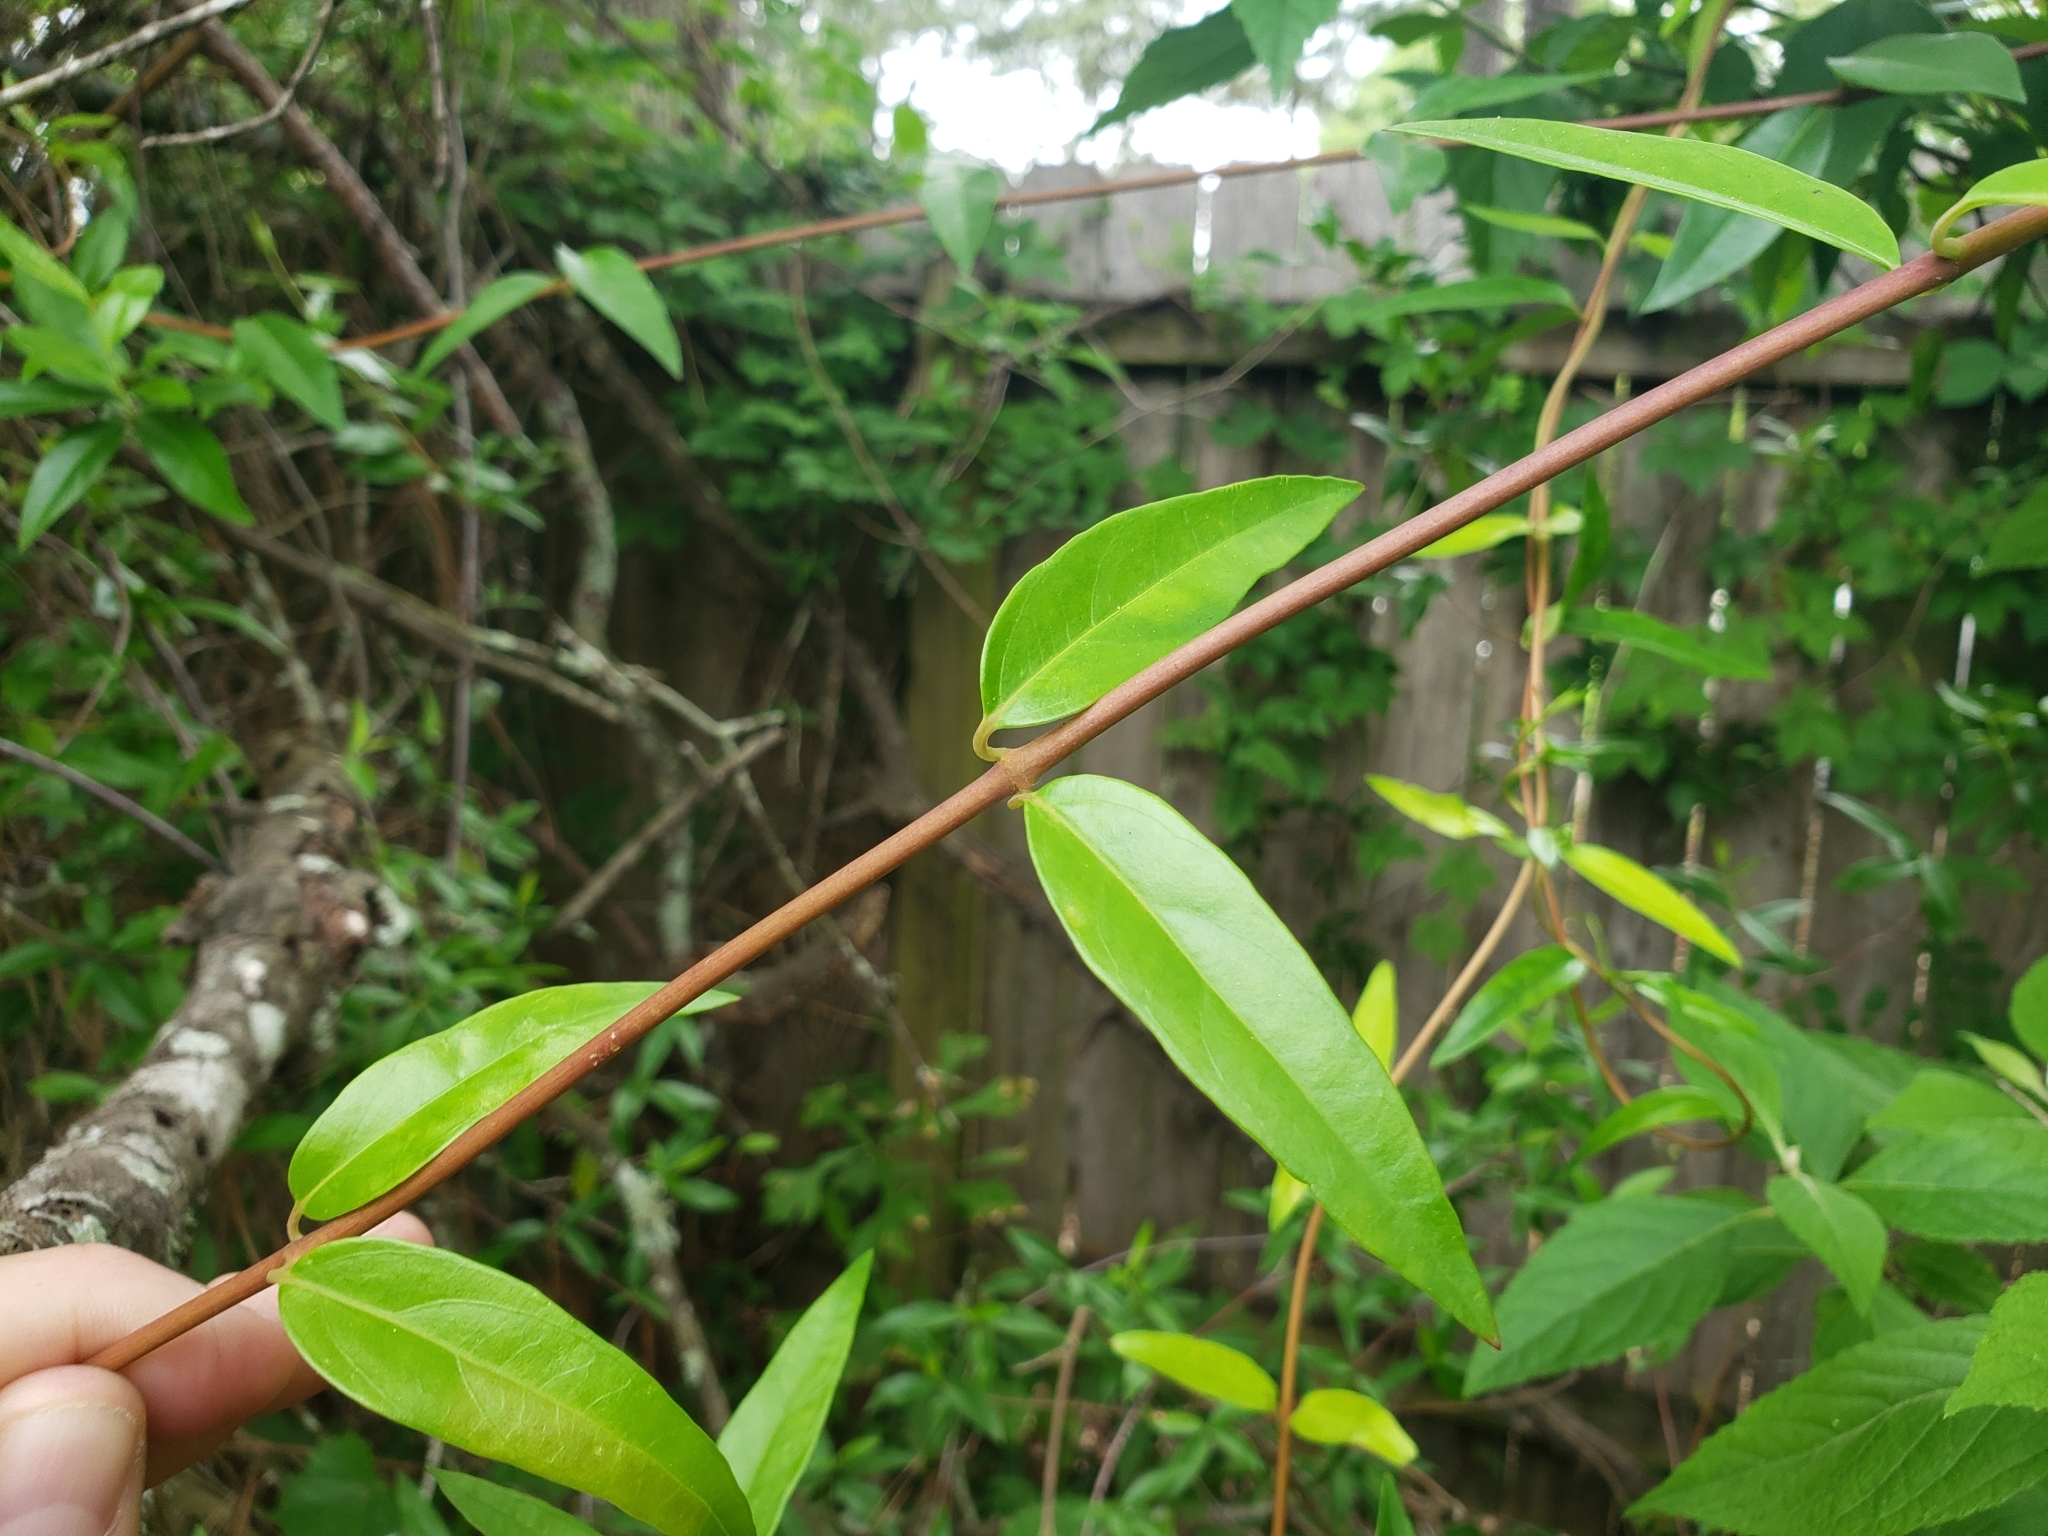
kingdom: Plantae
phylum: Tracheophyta
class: Magnoliopsida
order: Gentianales
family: Gelsemiaceae
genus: Gelsemium
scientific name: Gelsemium sempervirens
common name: Carolina-jasmine
